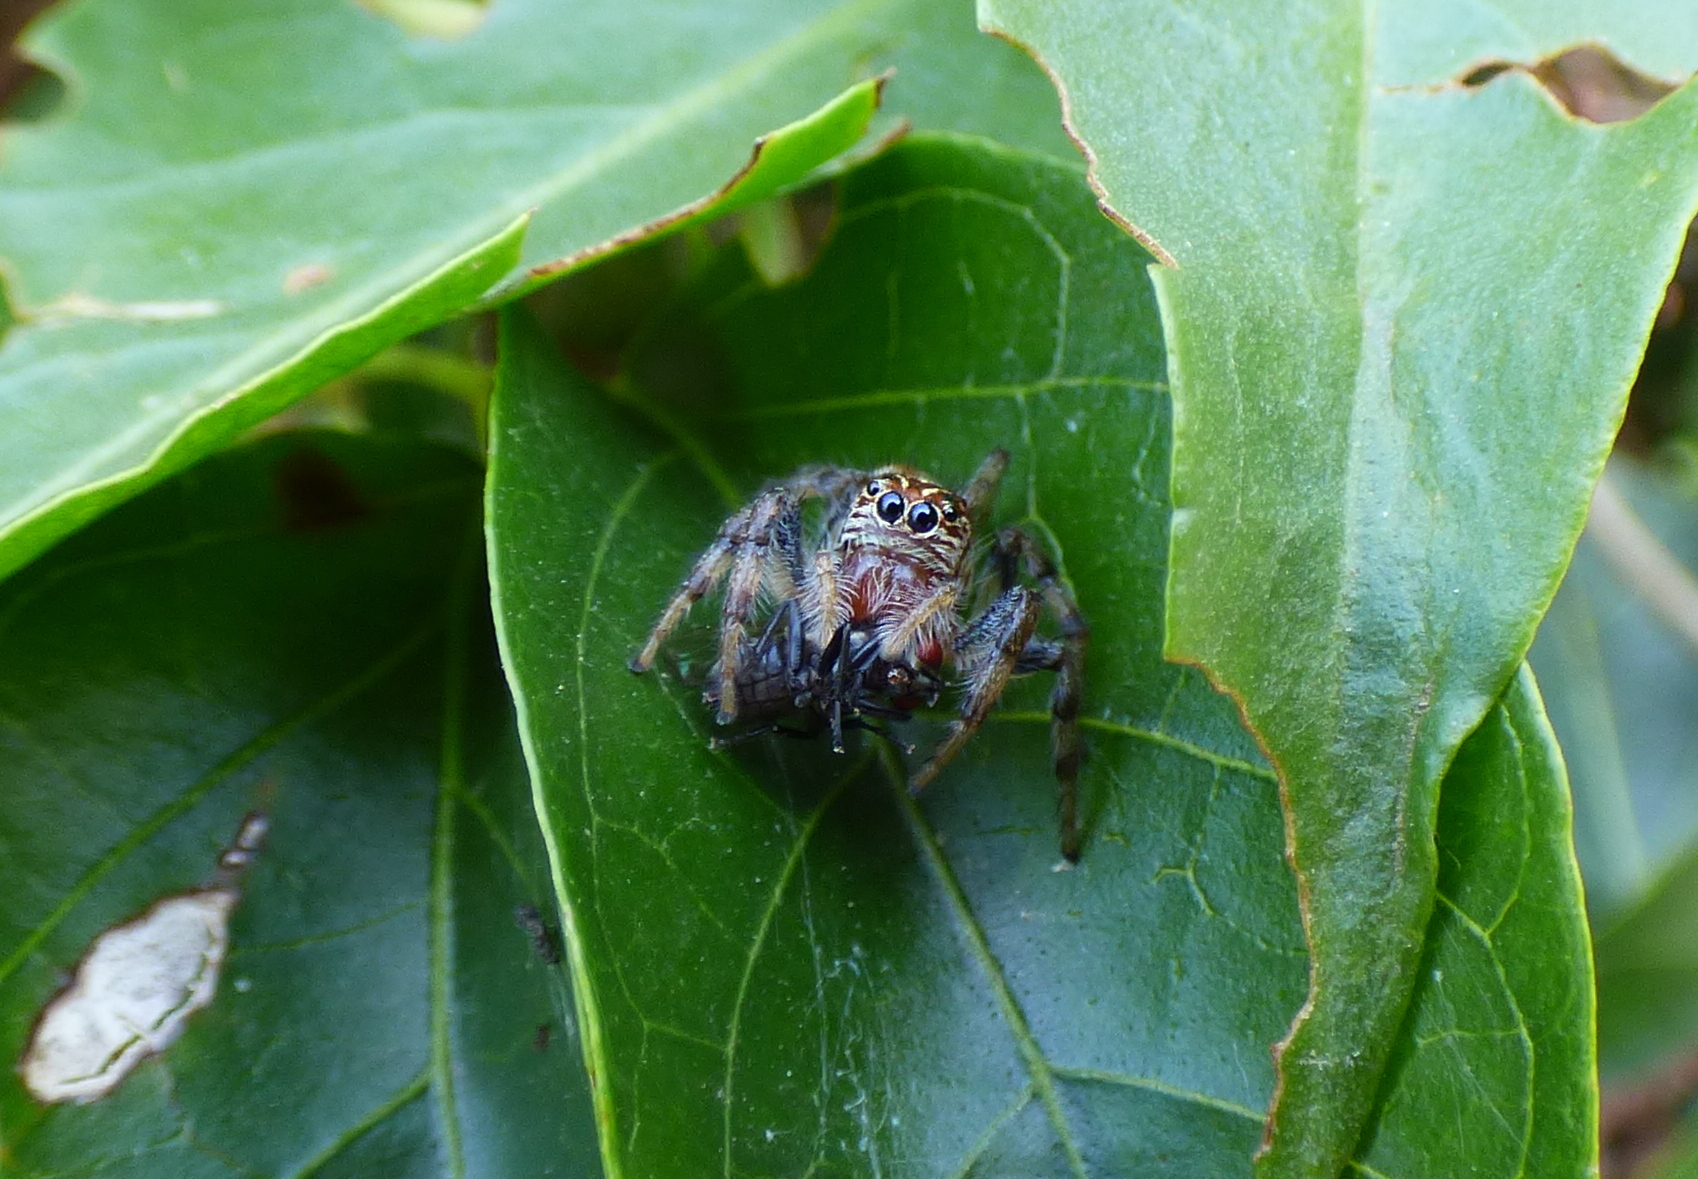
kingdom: Animalia
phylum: Arthropoda
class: Arachnida
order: Araneae
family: Salticidae
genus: Frigga
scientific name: Frigga quintensis
